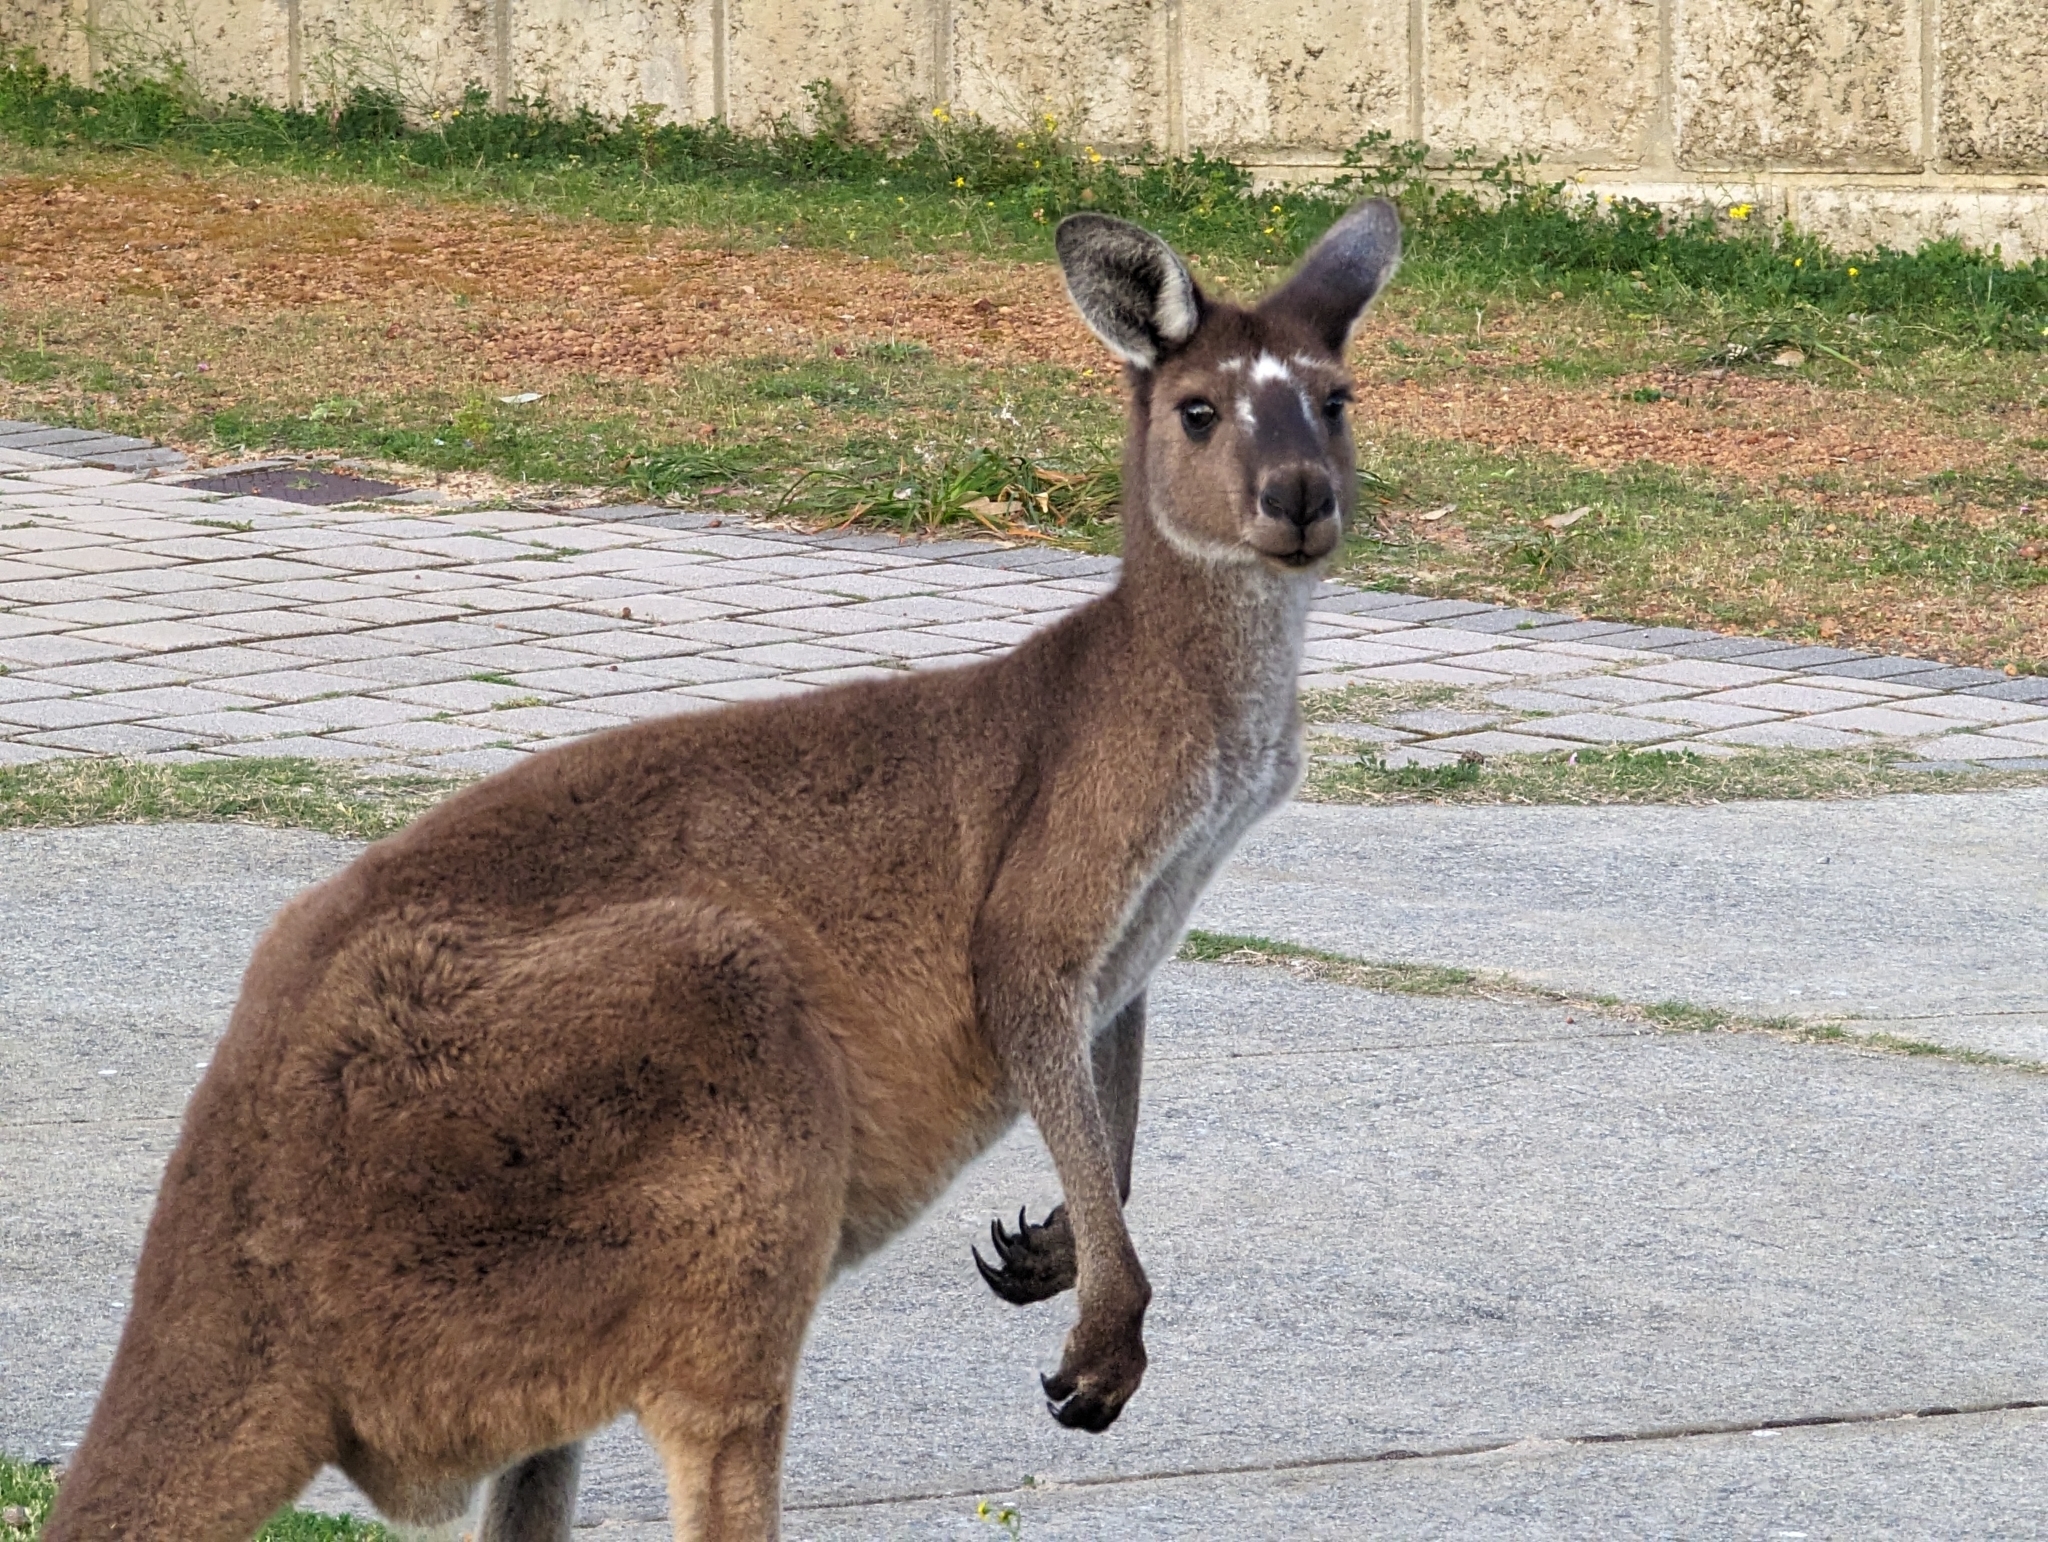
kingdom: Animalia
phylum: Chordata
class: Mammalia
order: Diprotodontia
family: Macropodidae
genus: Macropus
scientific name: Macropus fuliginosus
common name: Western grey kangaroo
